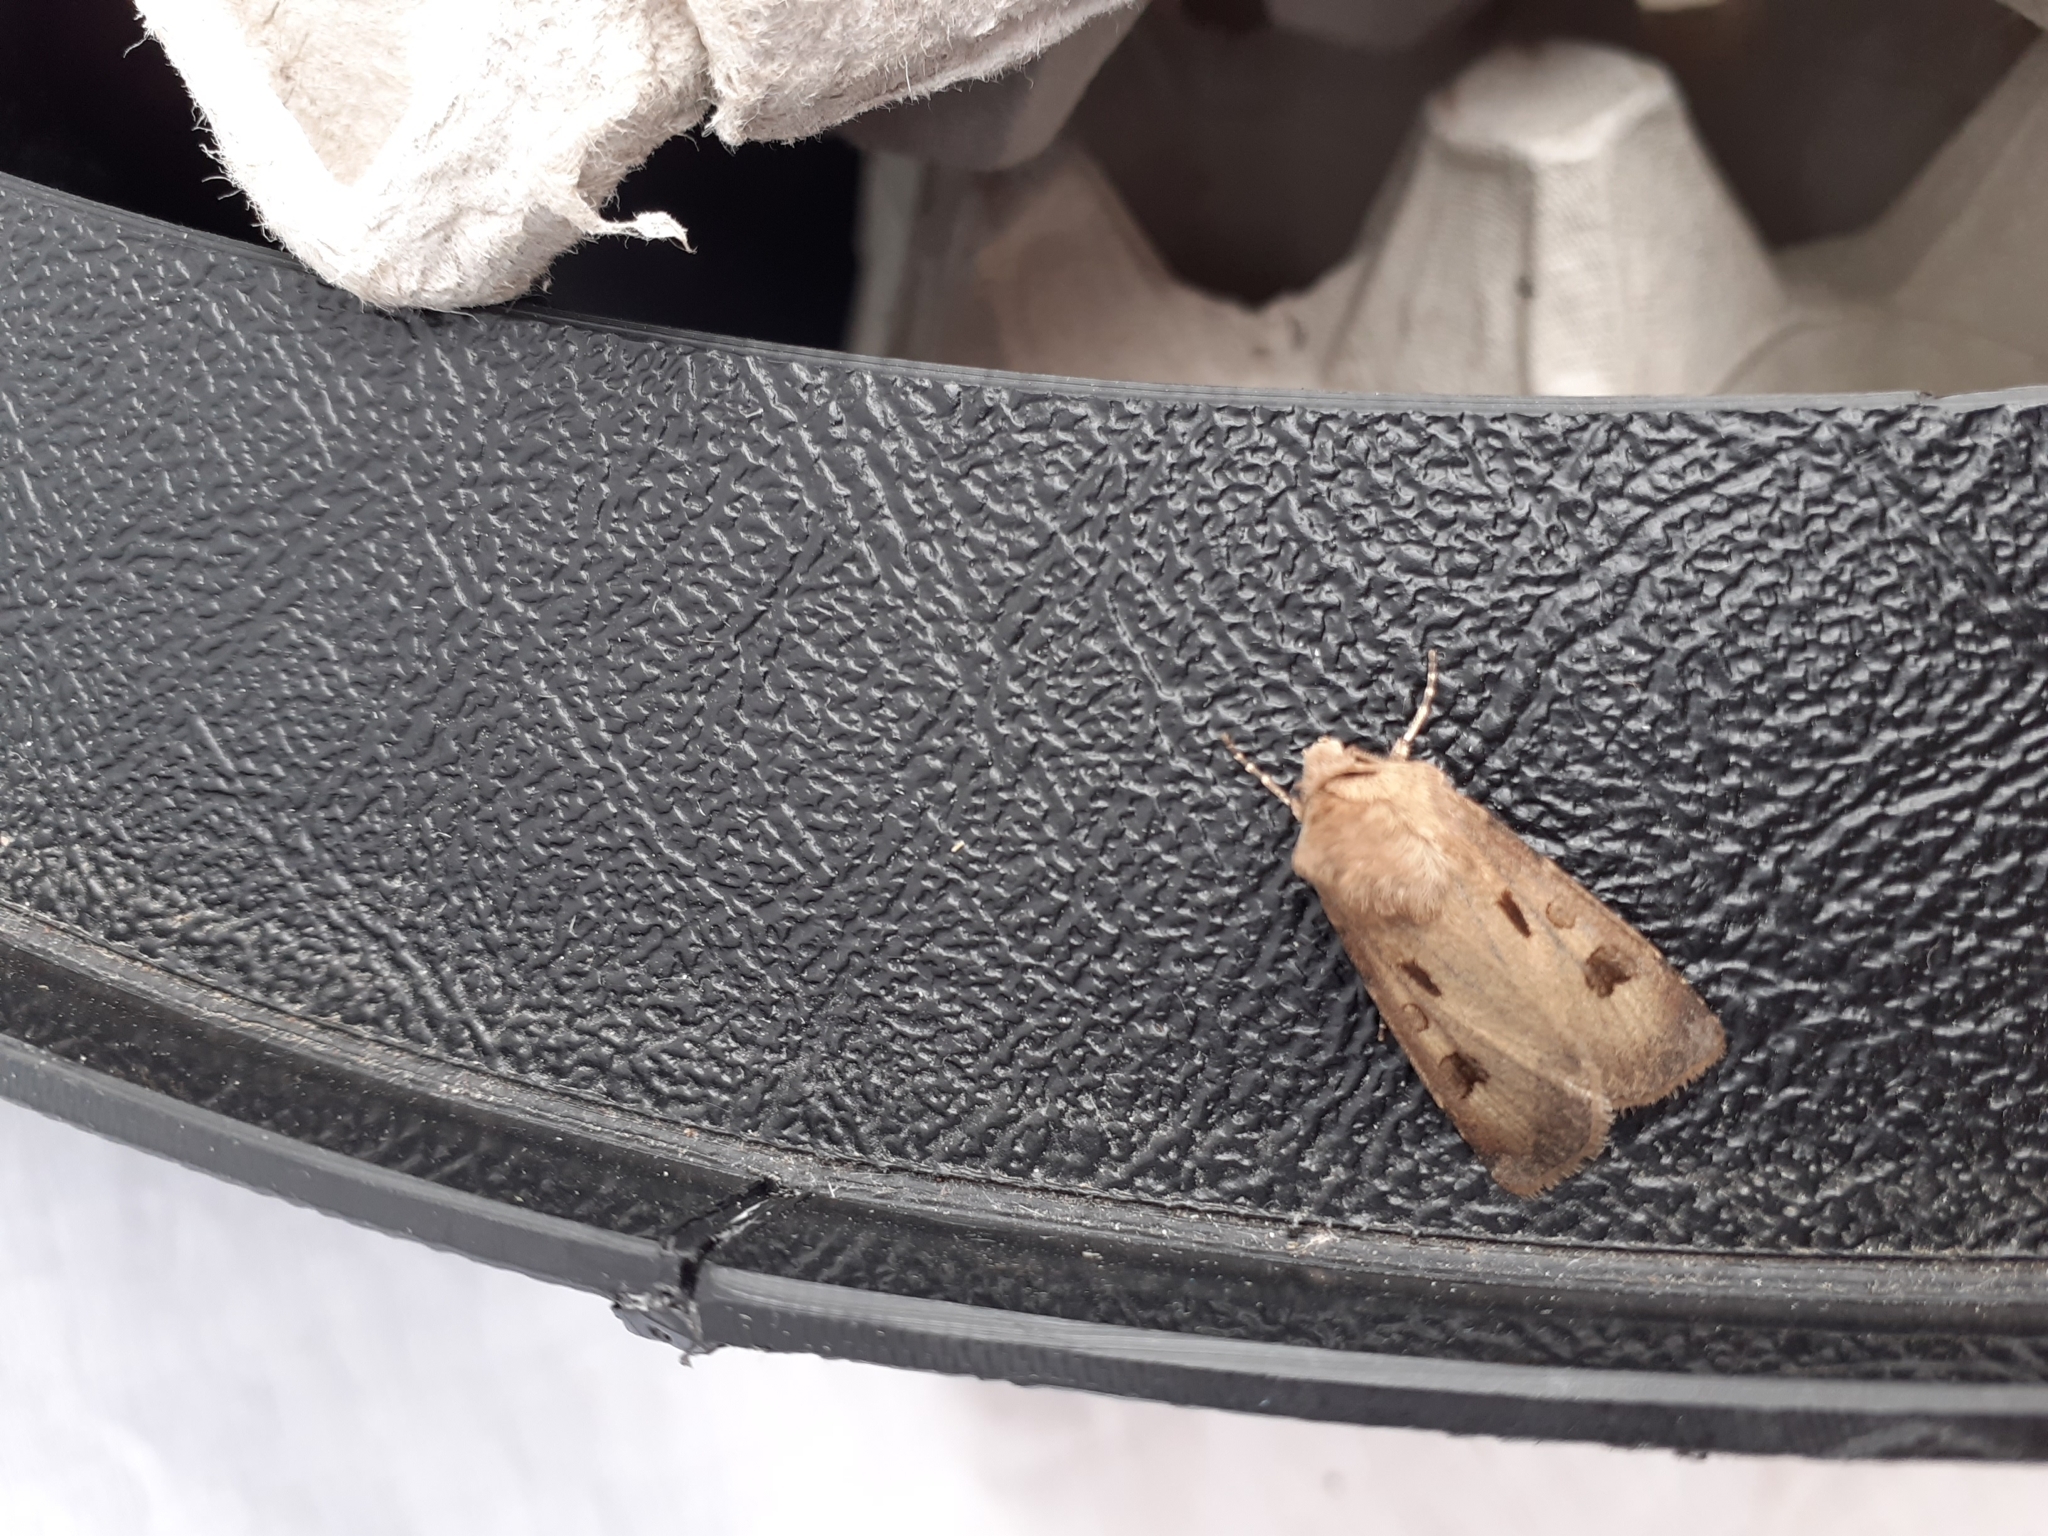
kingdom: Animalia
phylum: Arthropoda
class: Insecta
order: Lepidoptera
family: Noctuidae
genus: Agrotis
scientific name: Agrotis exclamationis
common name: Heart and dart
